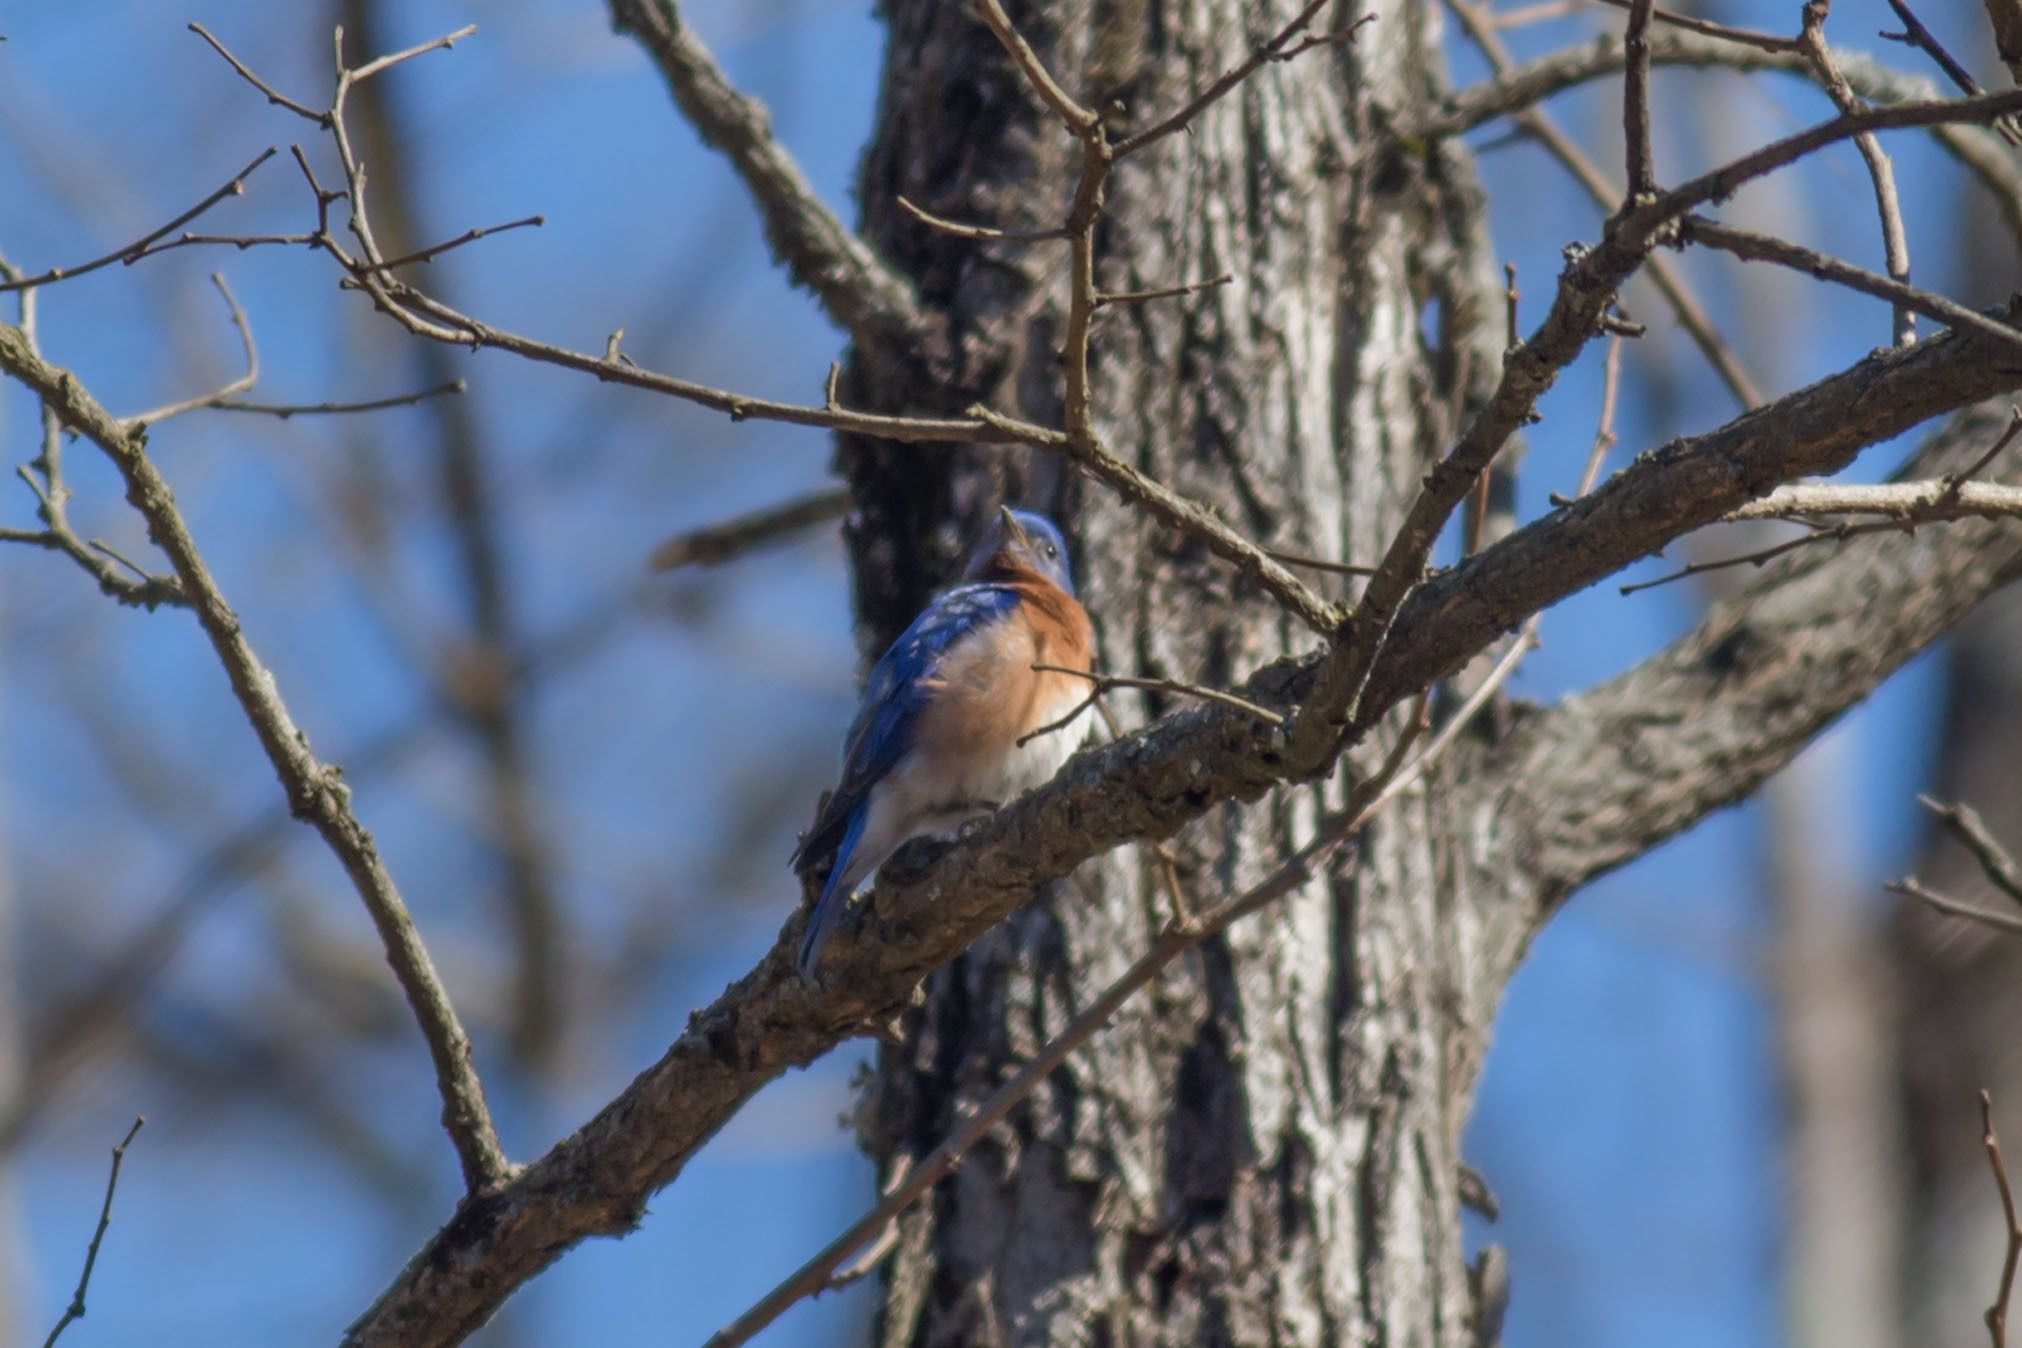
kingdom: Animalia
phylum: Chordata
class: Aves
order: Passeriformes
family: Turdidae
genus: Sialia
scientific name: Sialia sialis
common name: Eastern bluebird
